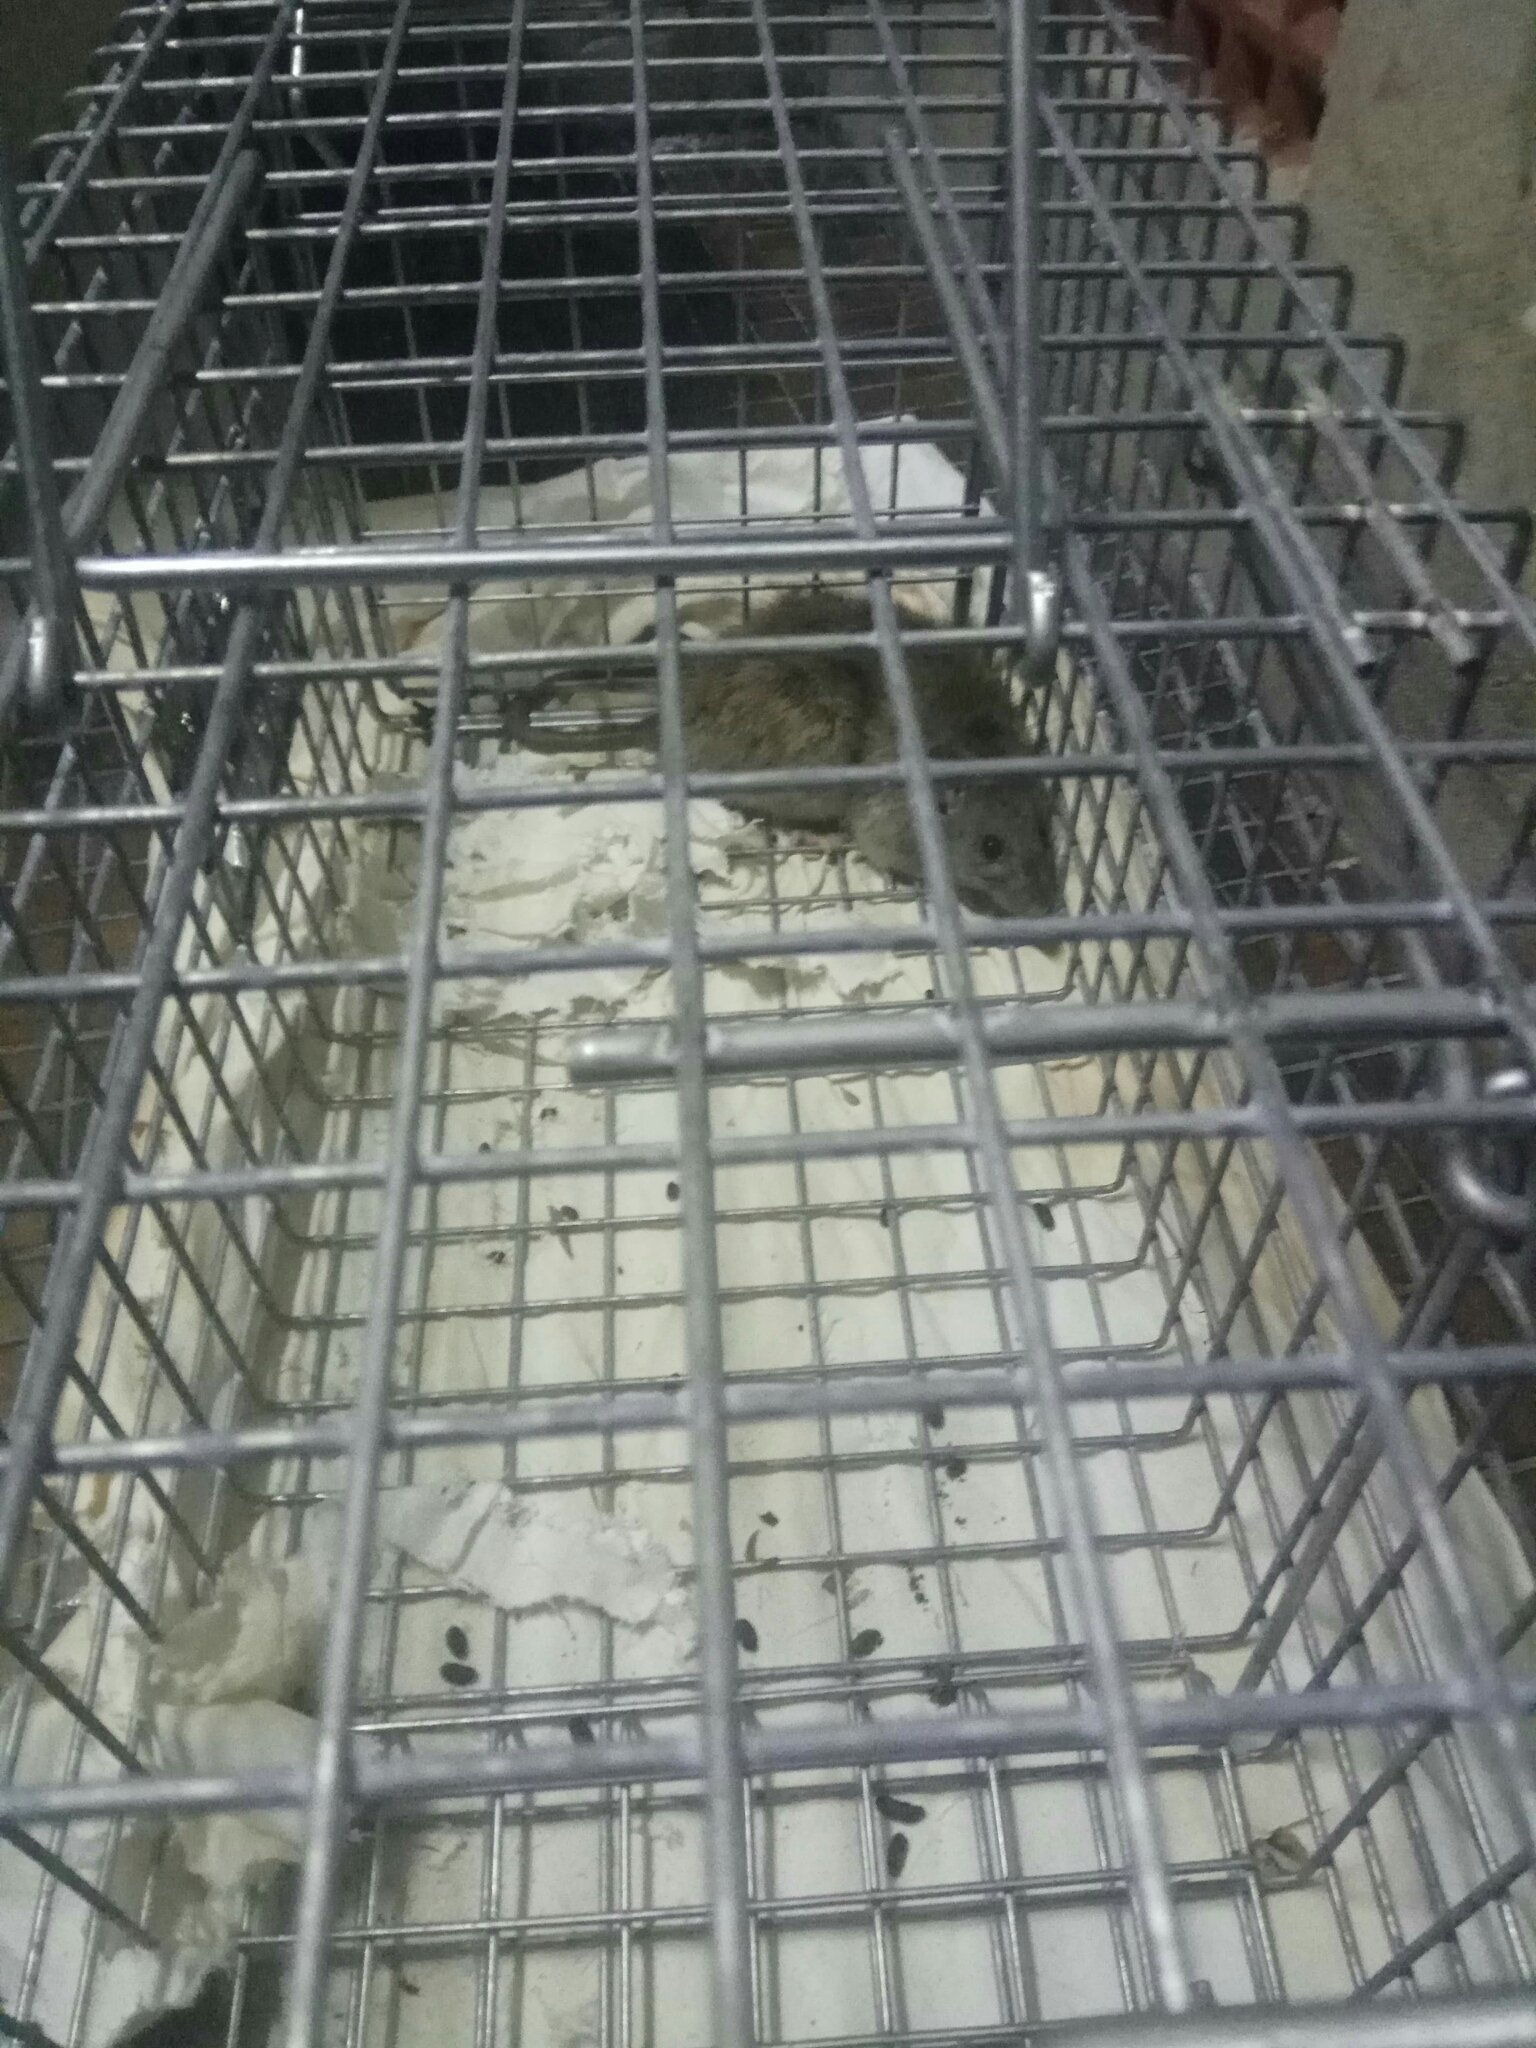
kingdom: Animalia
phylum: Chordata
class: Mammalia
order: Rodentia
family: Muridae
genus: Rattus
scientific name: Rattus rattus
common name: Black rat
